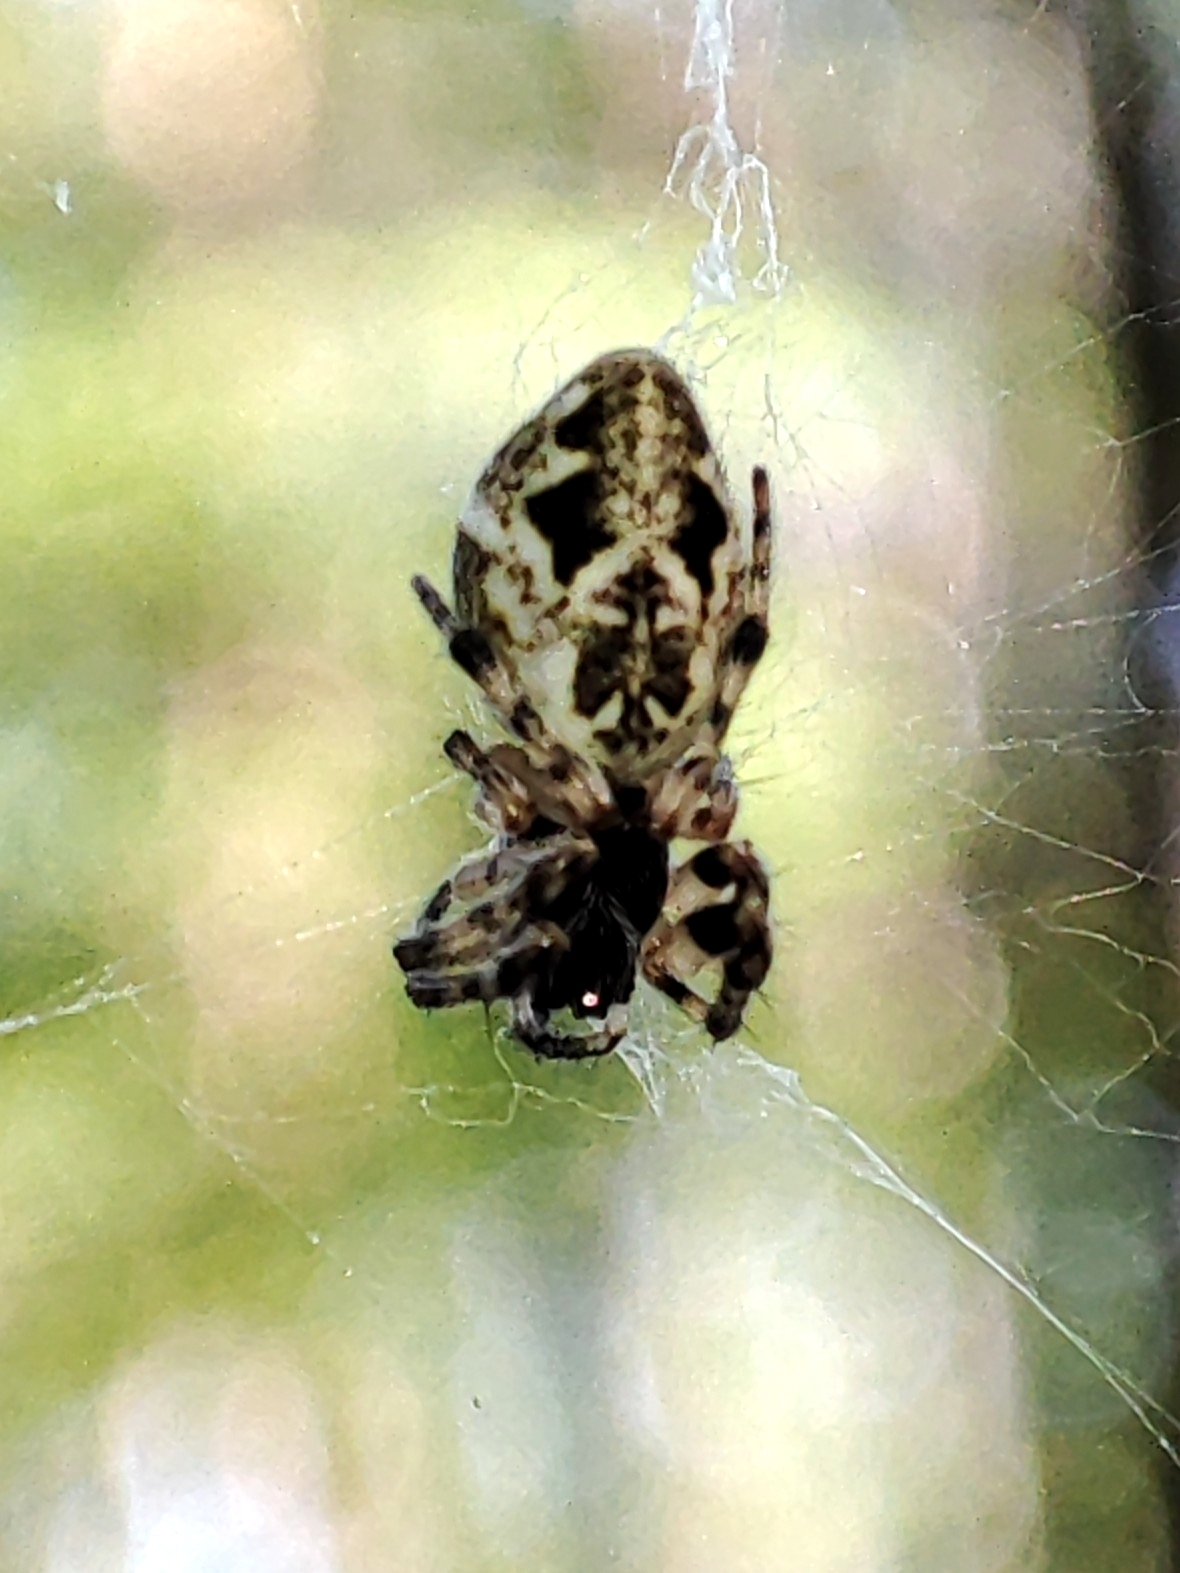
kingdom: Animalia
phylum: Arthropoda
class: Arachnida
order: Araneae
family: Araneidae
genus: Cyclosa
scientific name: Cyclosa conica
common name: Conical trashline orbweaver
